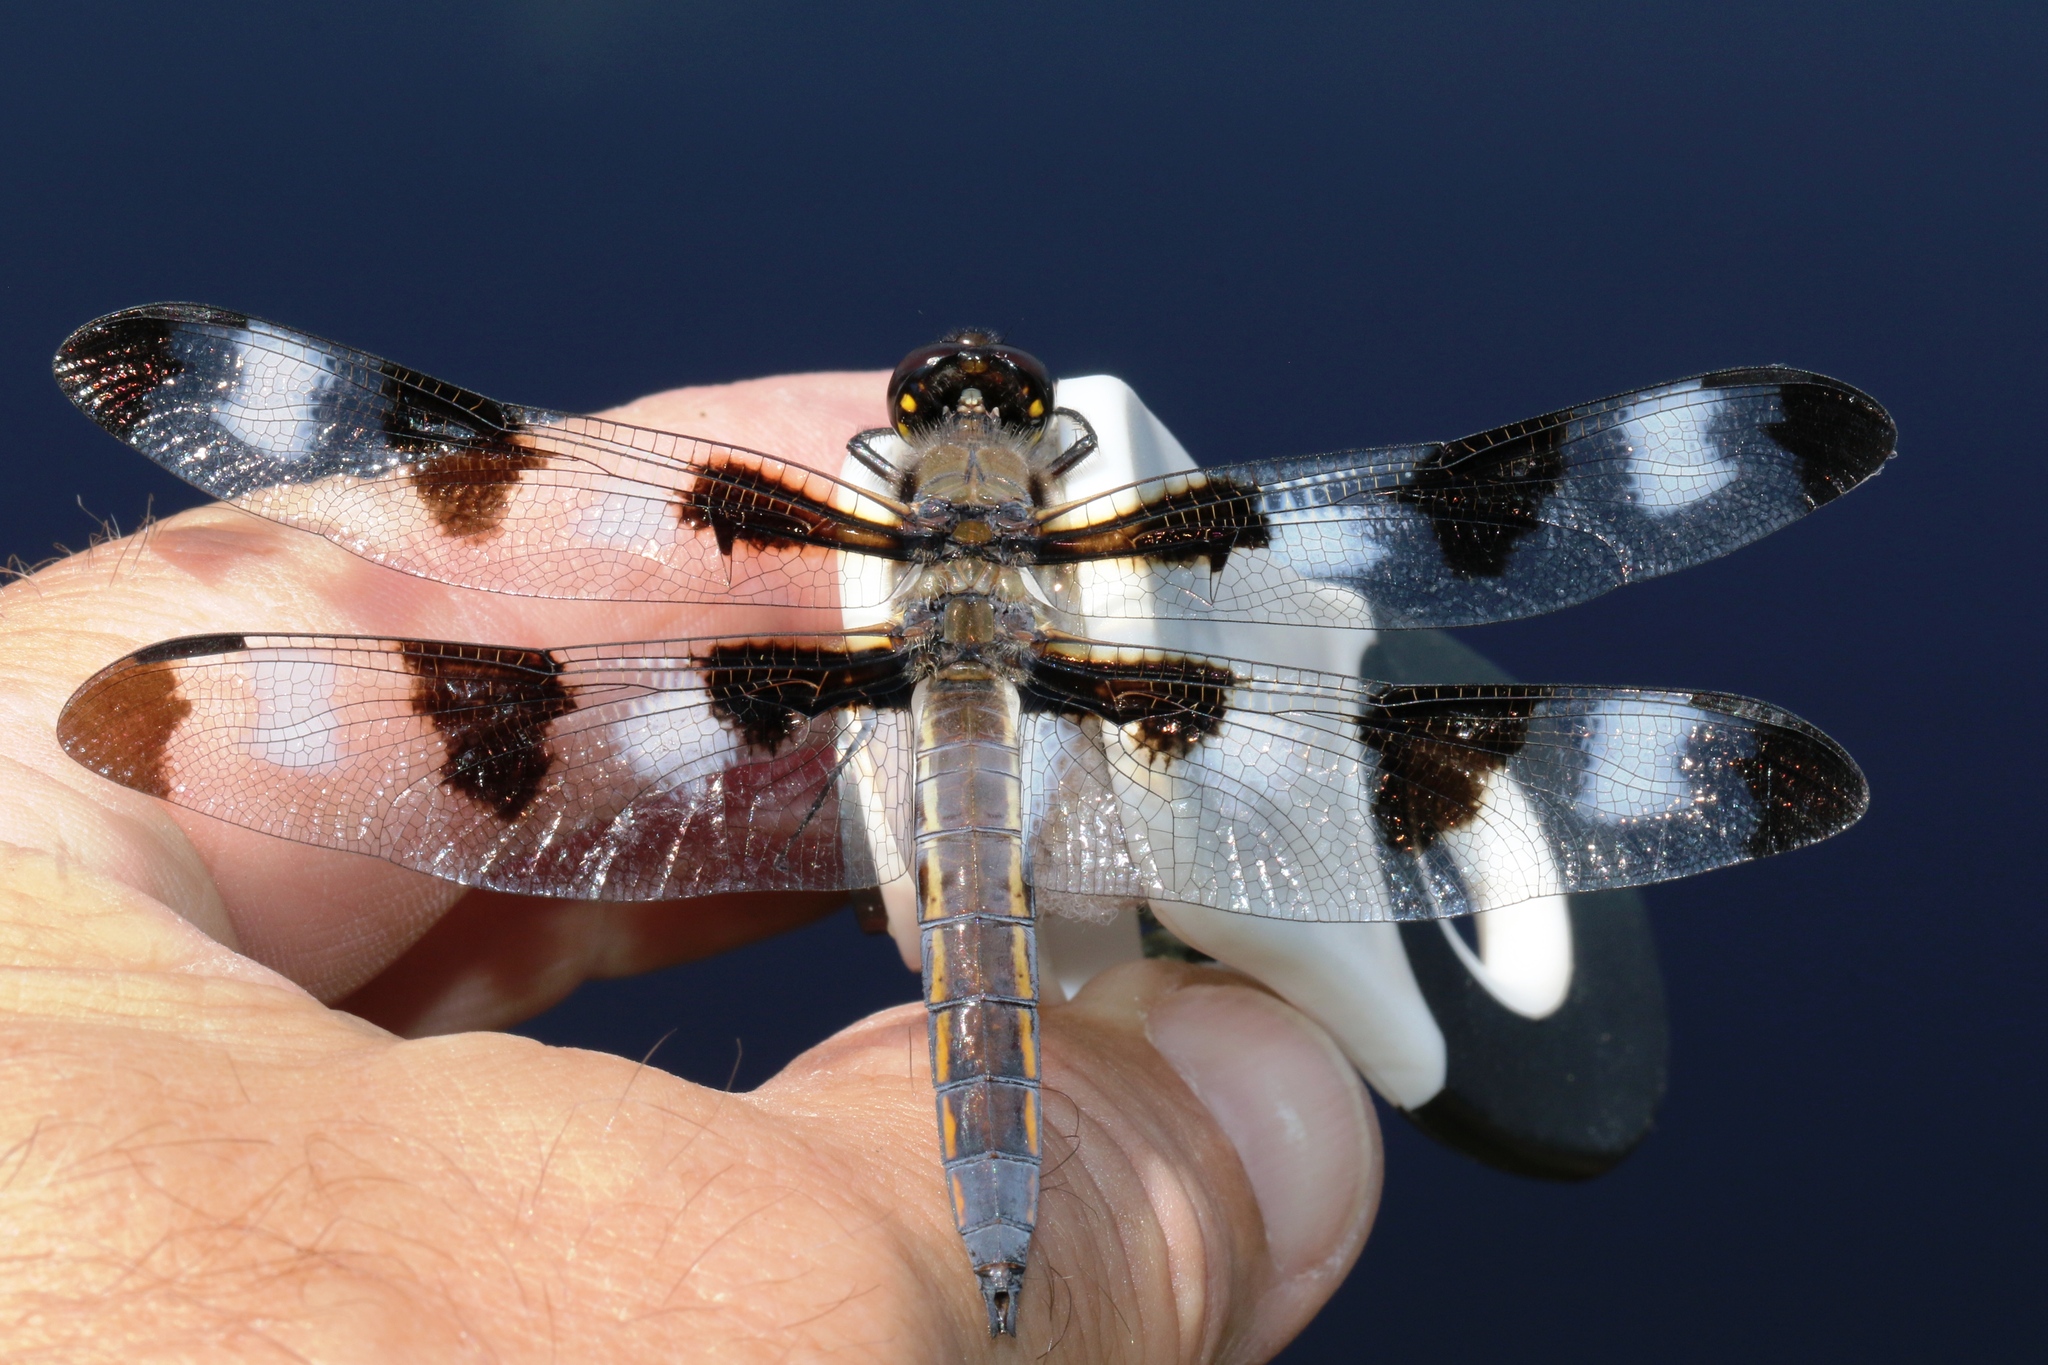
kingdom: Animalia
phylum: Arthropoda
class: Insecta
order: Odonata
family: Libellulidae
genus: Libellula
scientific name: Libellula pulchella
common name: Twelve-spotted skimmer
